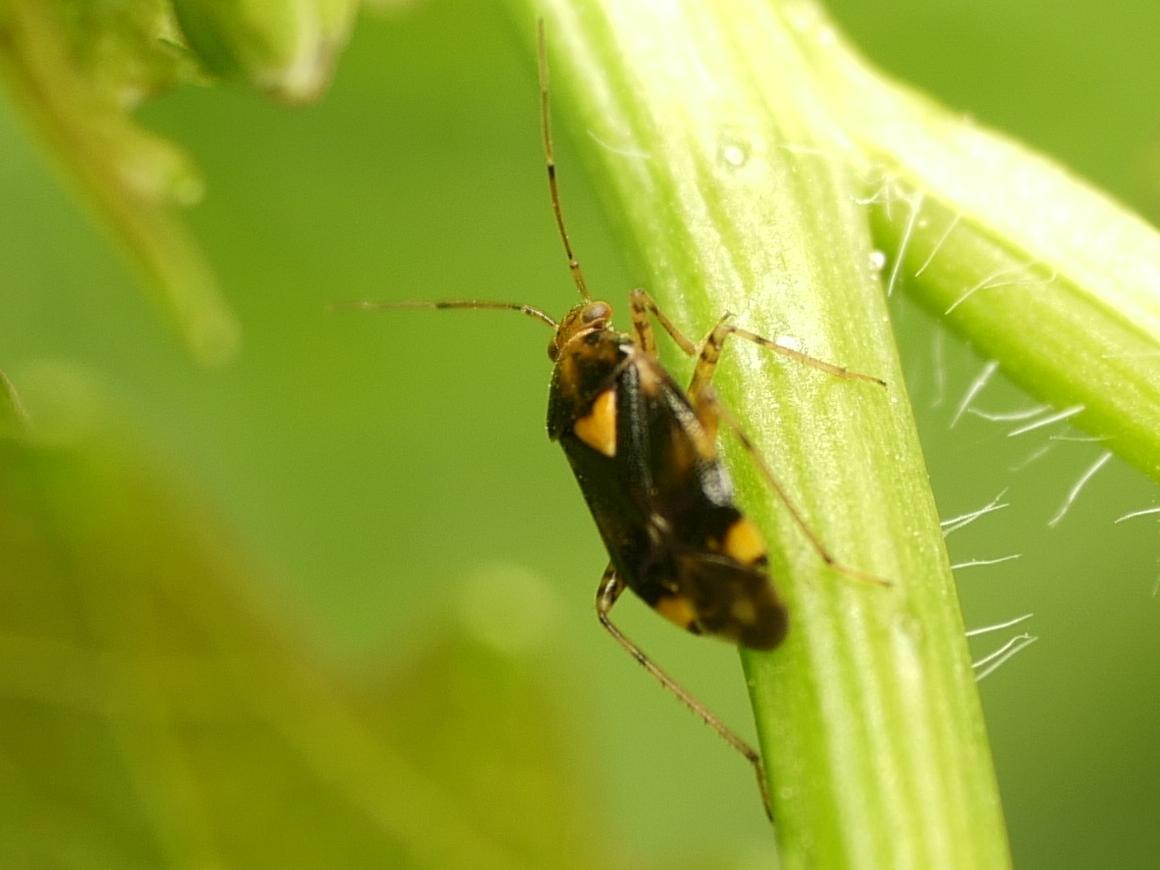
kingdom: Animalia
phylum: Arthropoda
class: Insecta
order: Hemiptera
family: Miridae
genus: Liocoris
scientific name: Liocoris tripustulatus
